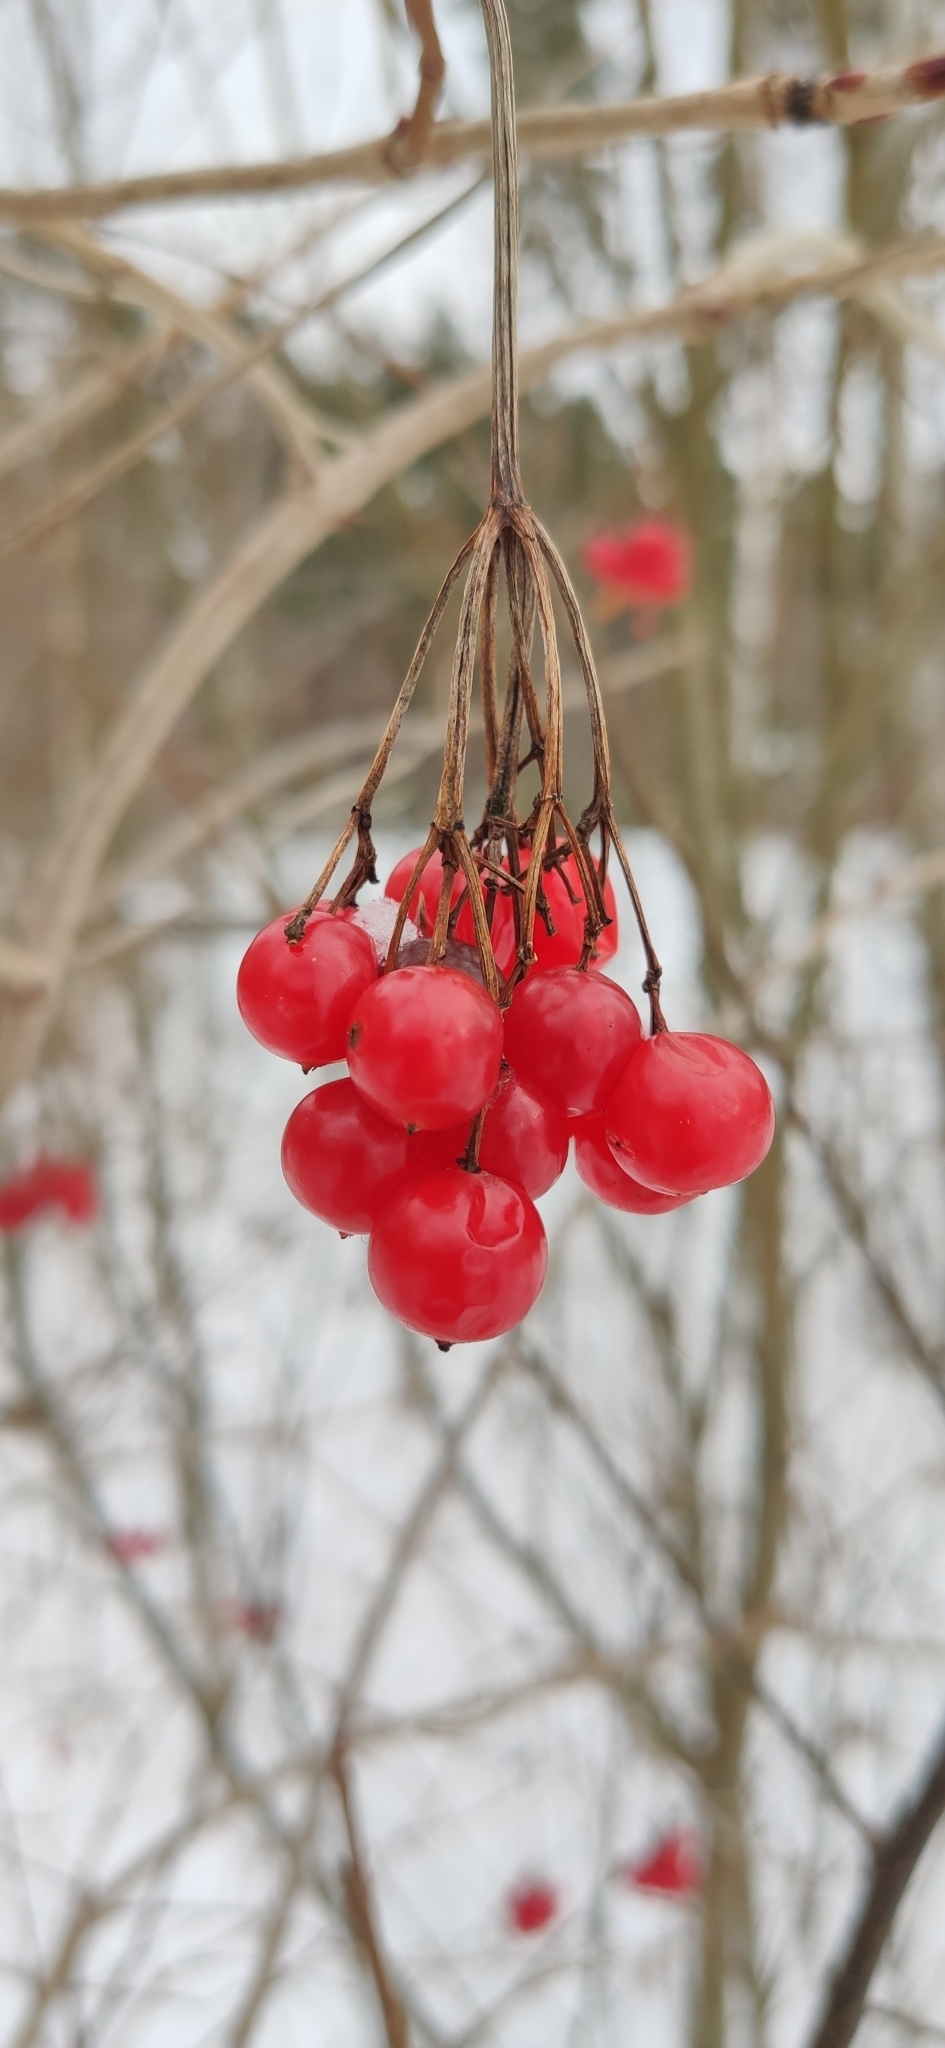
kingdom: Plantae
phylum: Tracheophyta
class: Magnoliopsida
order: Dipsacales
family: Viburnaceae
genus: Viburnum
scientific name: Viburnum opulus
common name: Guelder-rose
